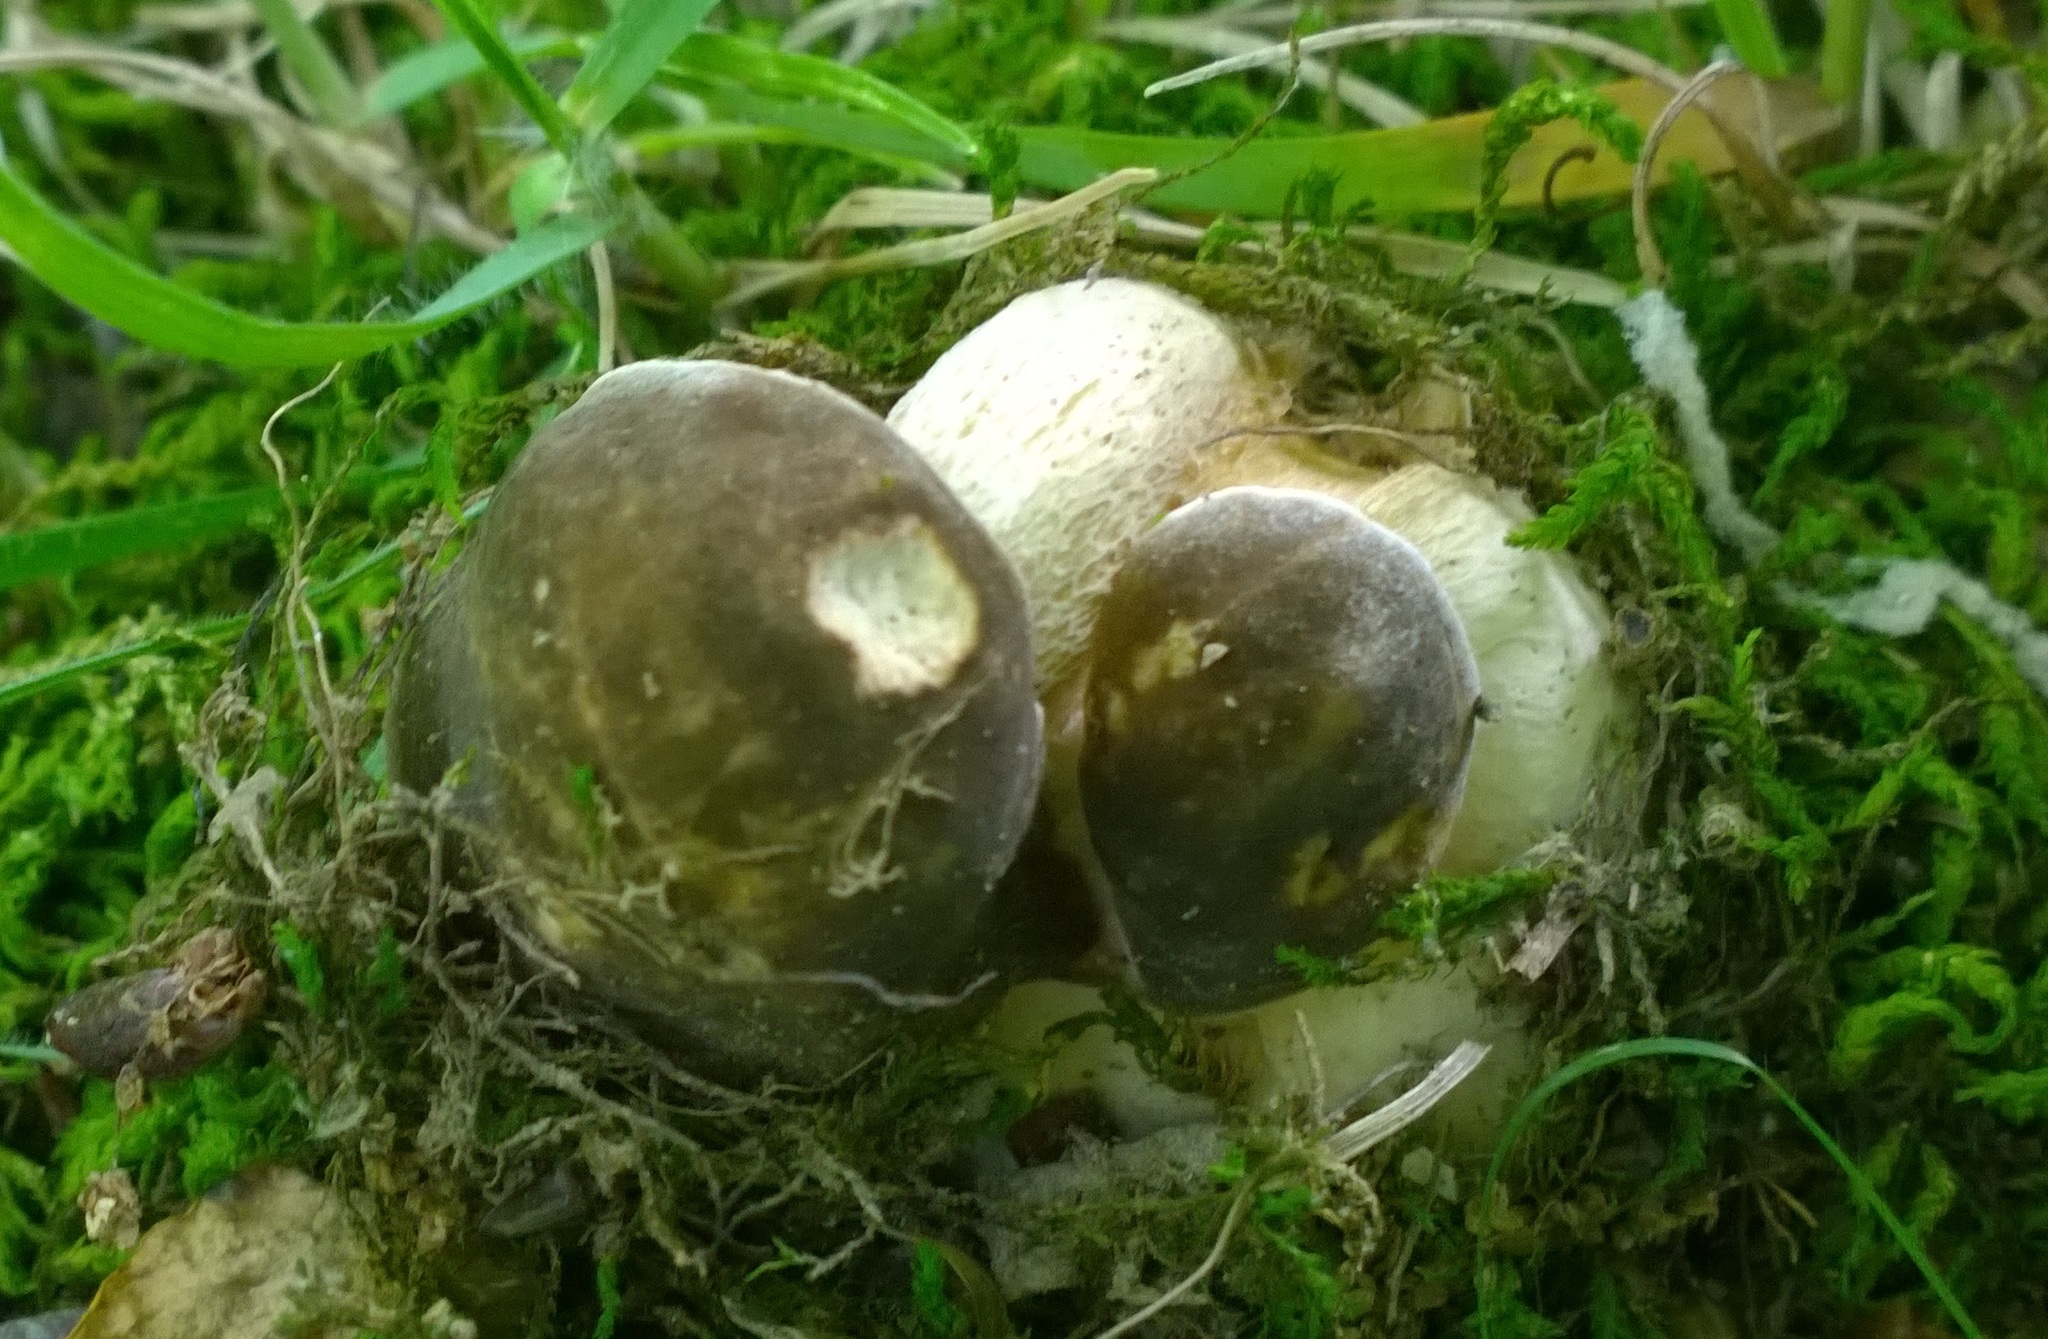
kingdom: Fungi
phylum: Basidiomycota
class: Agaricomycetes
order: Boletales
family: Boletaceae
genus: Boletus
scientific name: Boletus atkinsonii
